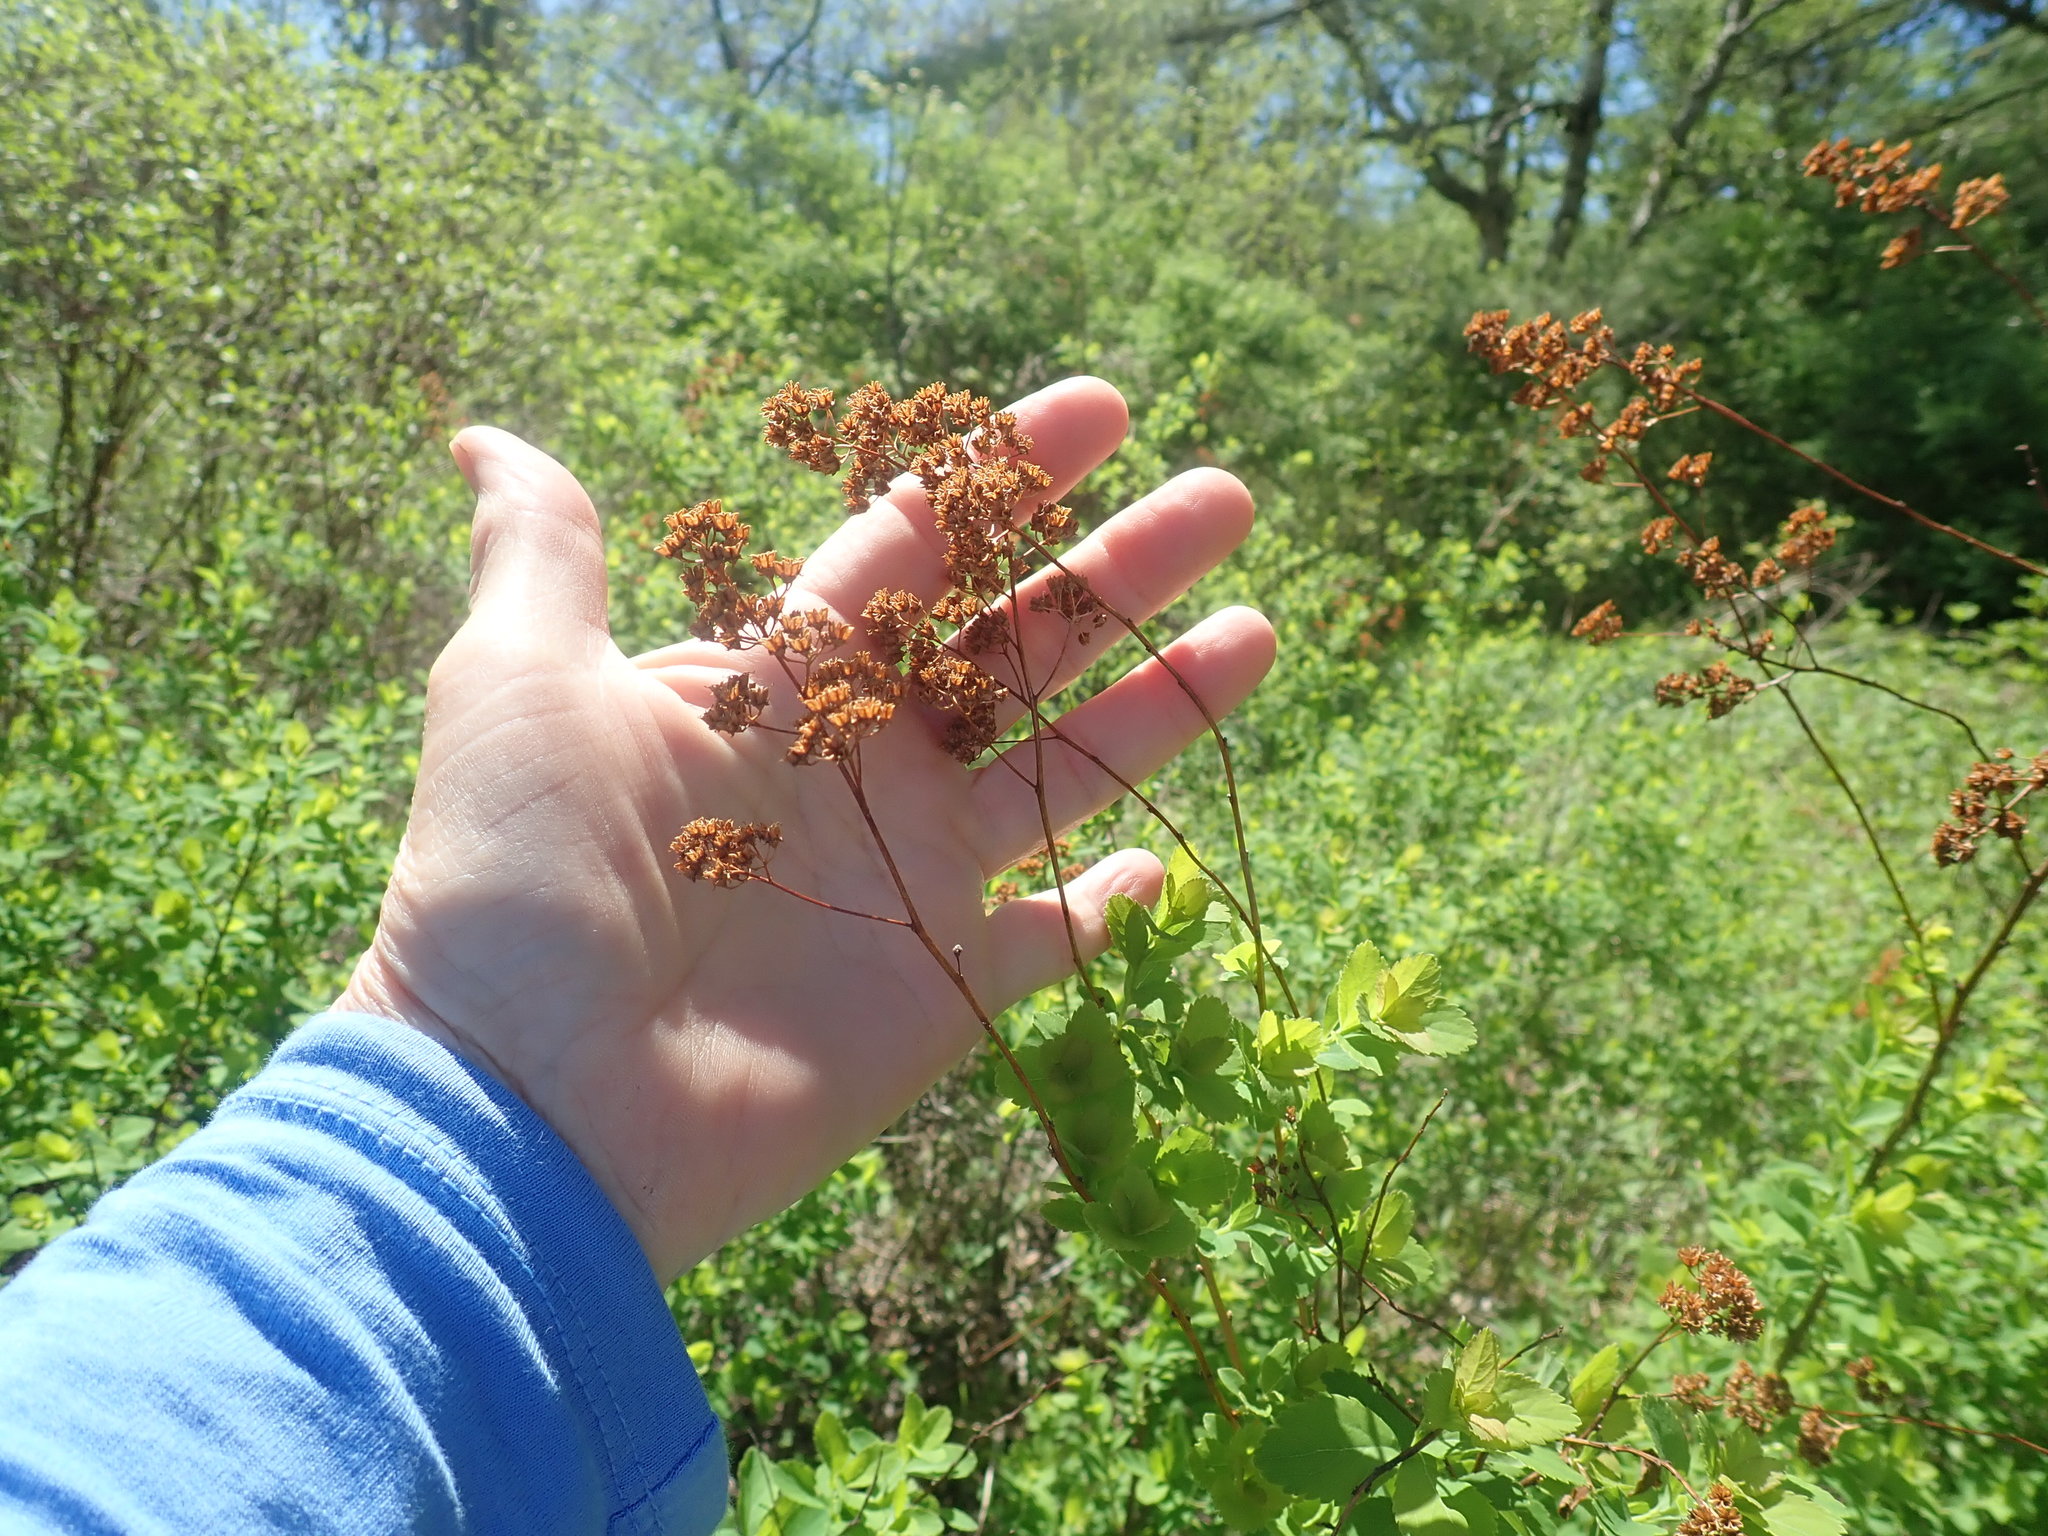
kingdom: Plantae
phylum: Tracheophyta
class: Magnoliopsida
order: Rosales
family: Rosaceae
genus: Spiraea
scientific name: Spiraea alba
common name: Pale bridewort
